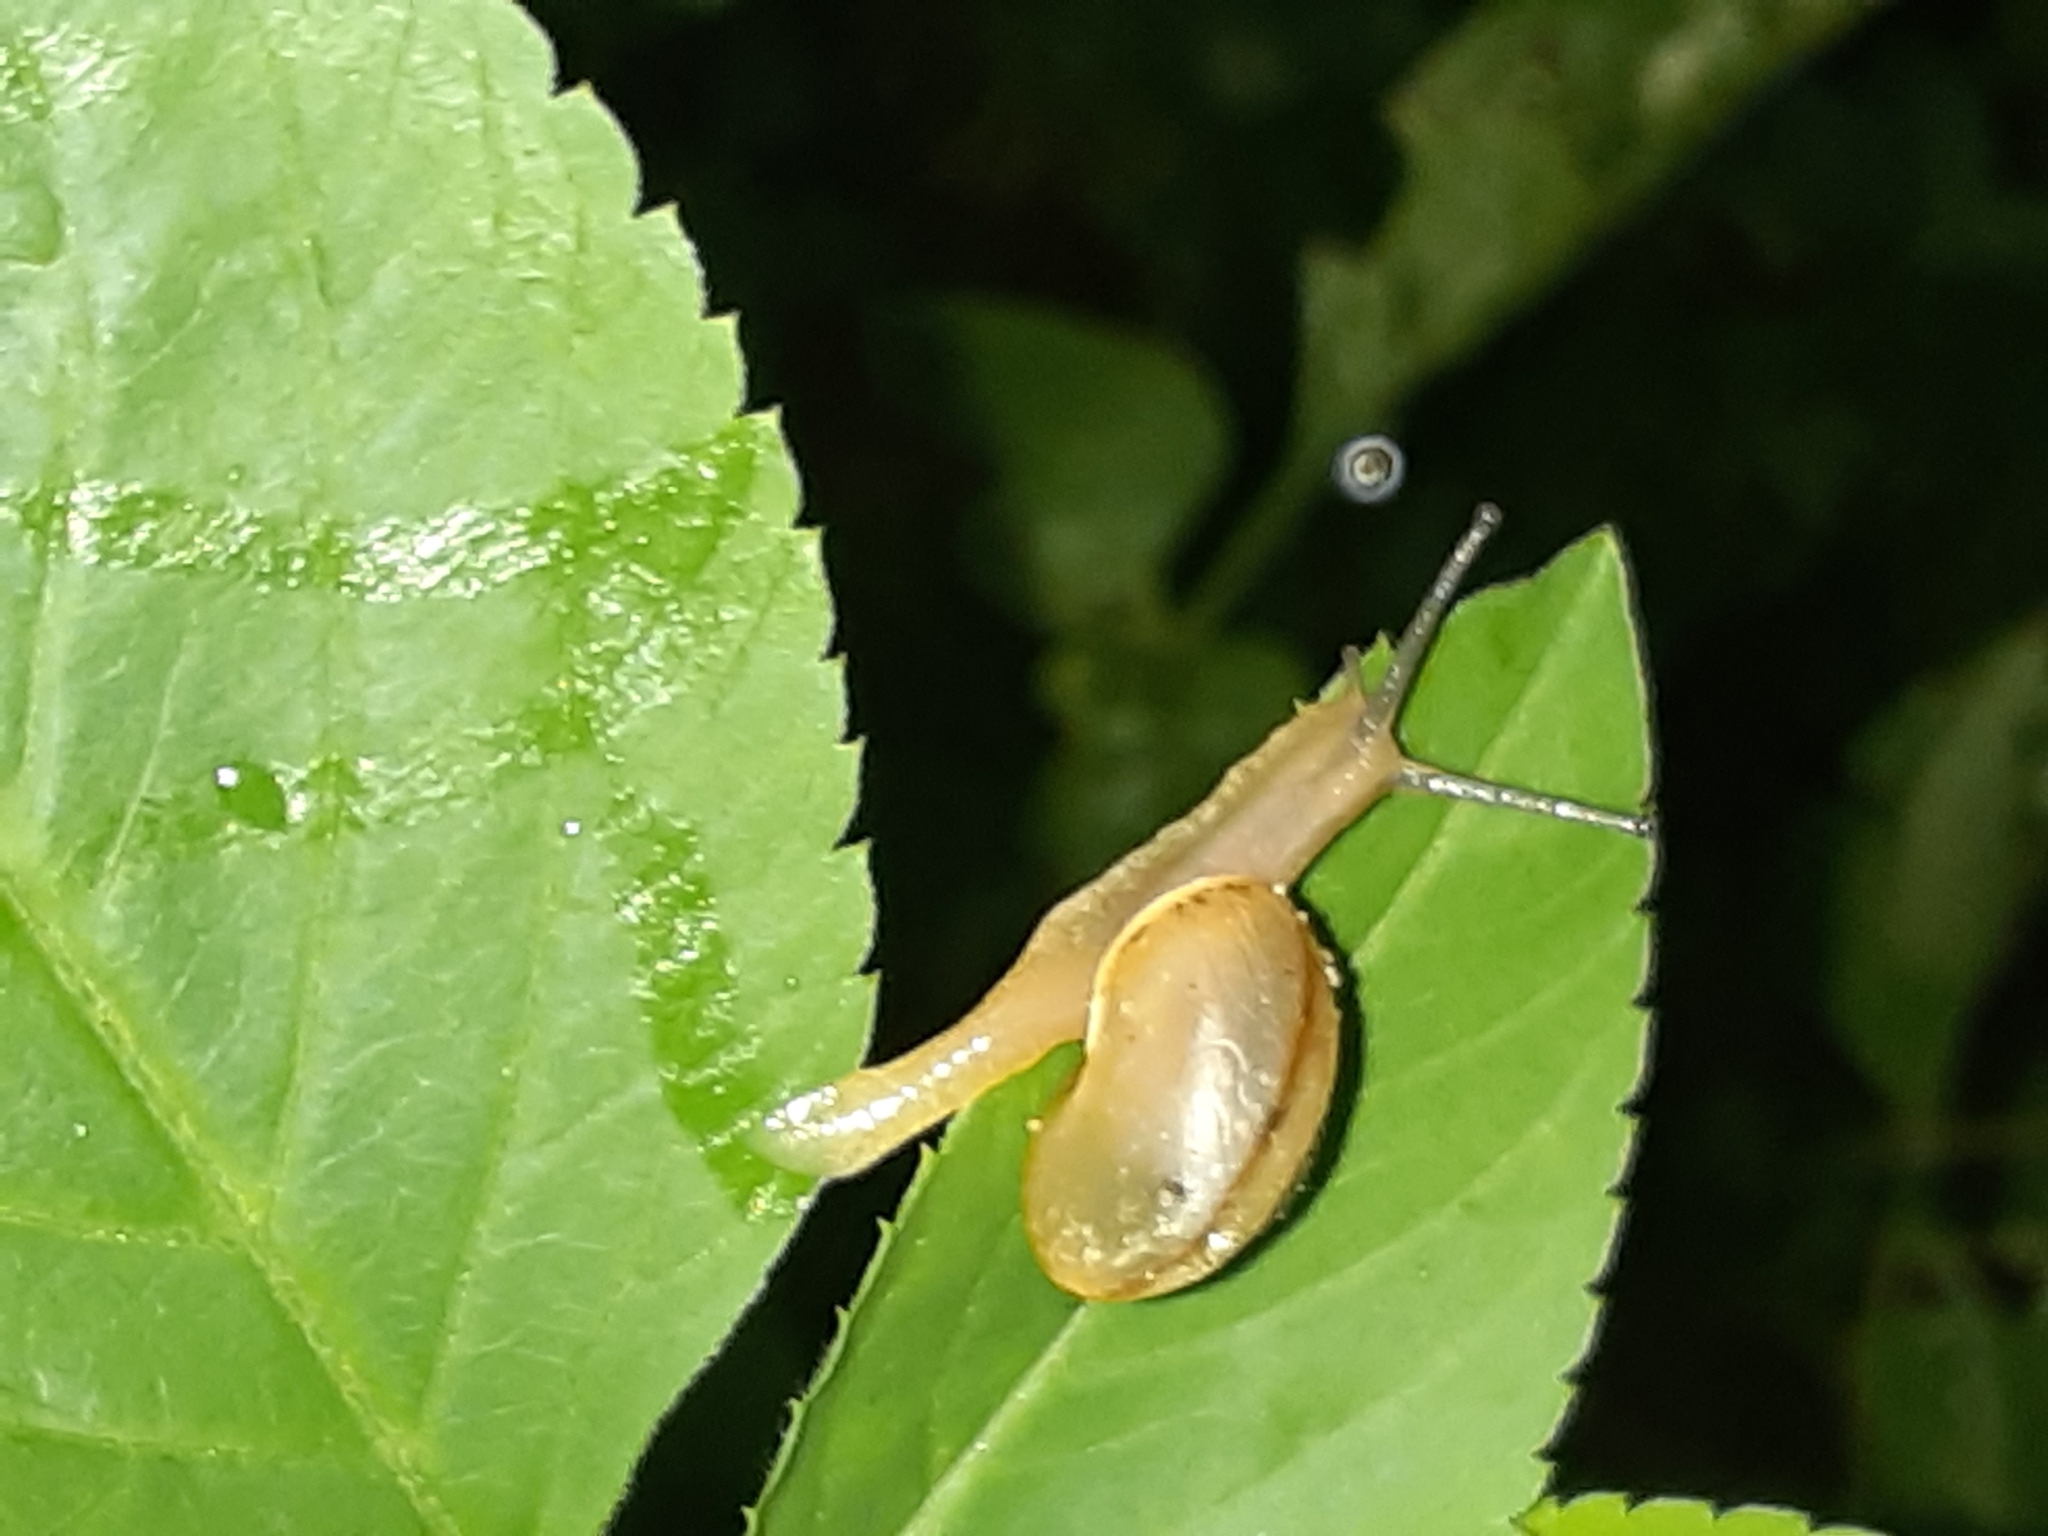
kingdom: Animalia
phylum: Mollusca
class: Gastropoda
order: Stylommatophora
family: Camaenidae
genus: Bradybaena
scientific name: Bradybaena similaris
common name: Asian trampsnail
